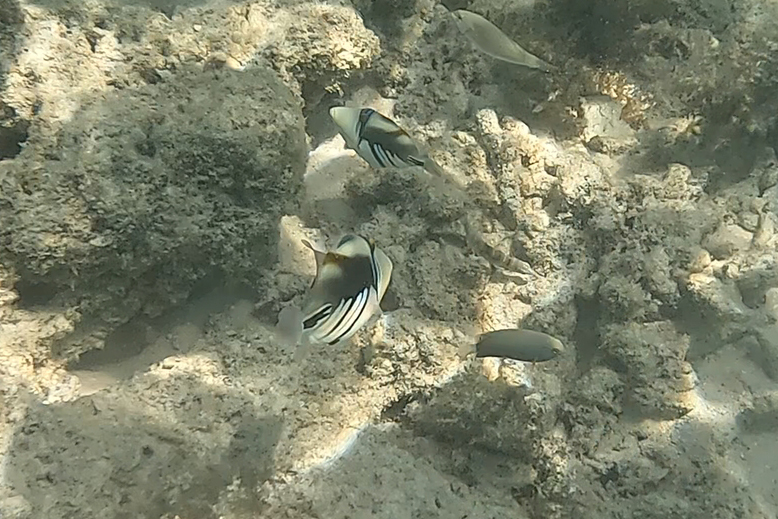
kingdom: Animalia
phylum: Chordata
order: Tetraodontiformes
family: Balistidae
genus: Rhinecanthus
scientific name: Rhinecanthus aculeatus
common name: White-banded triggerfish
